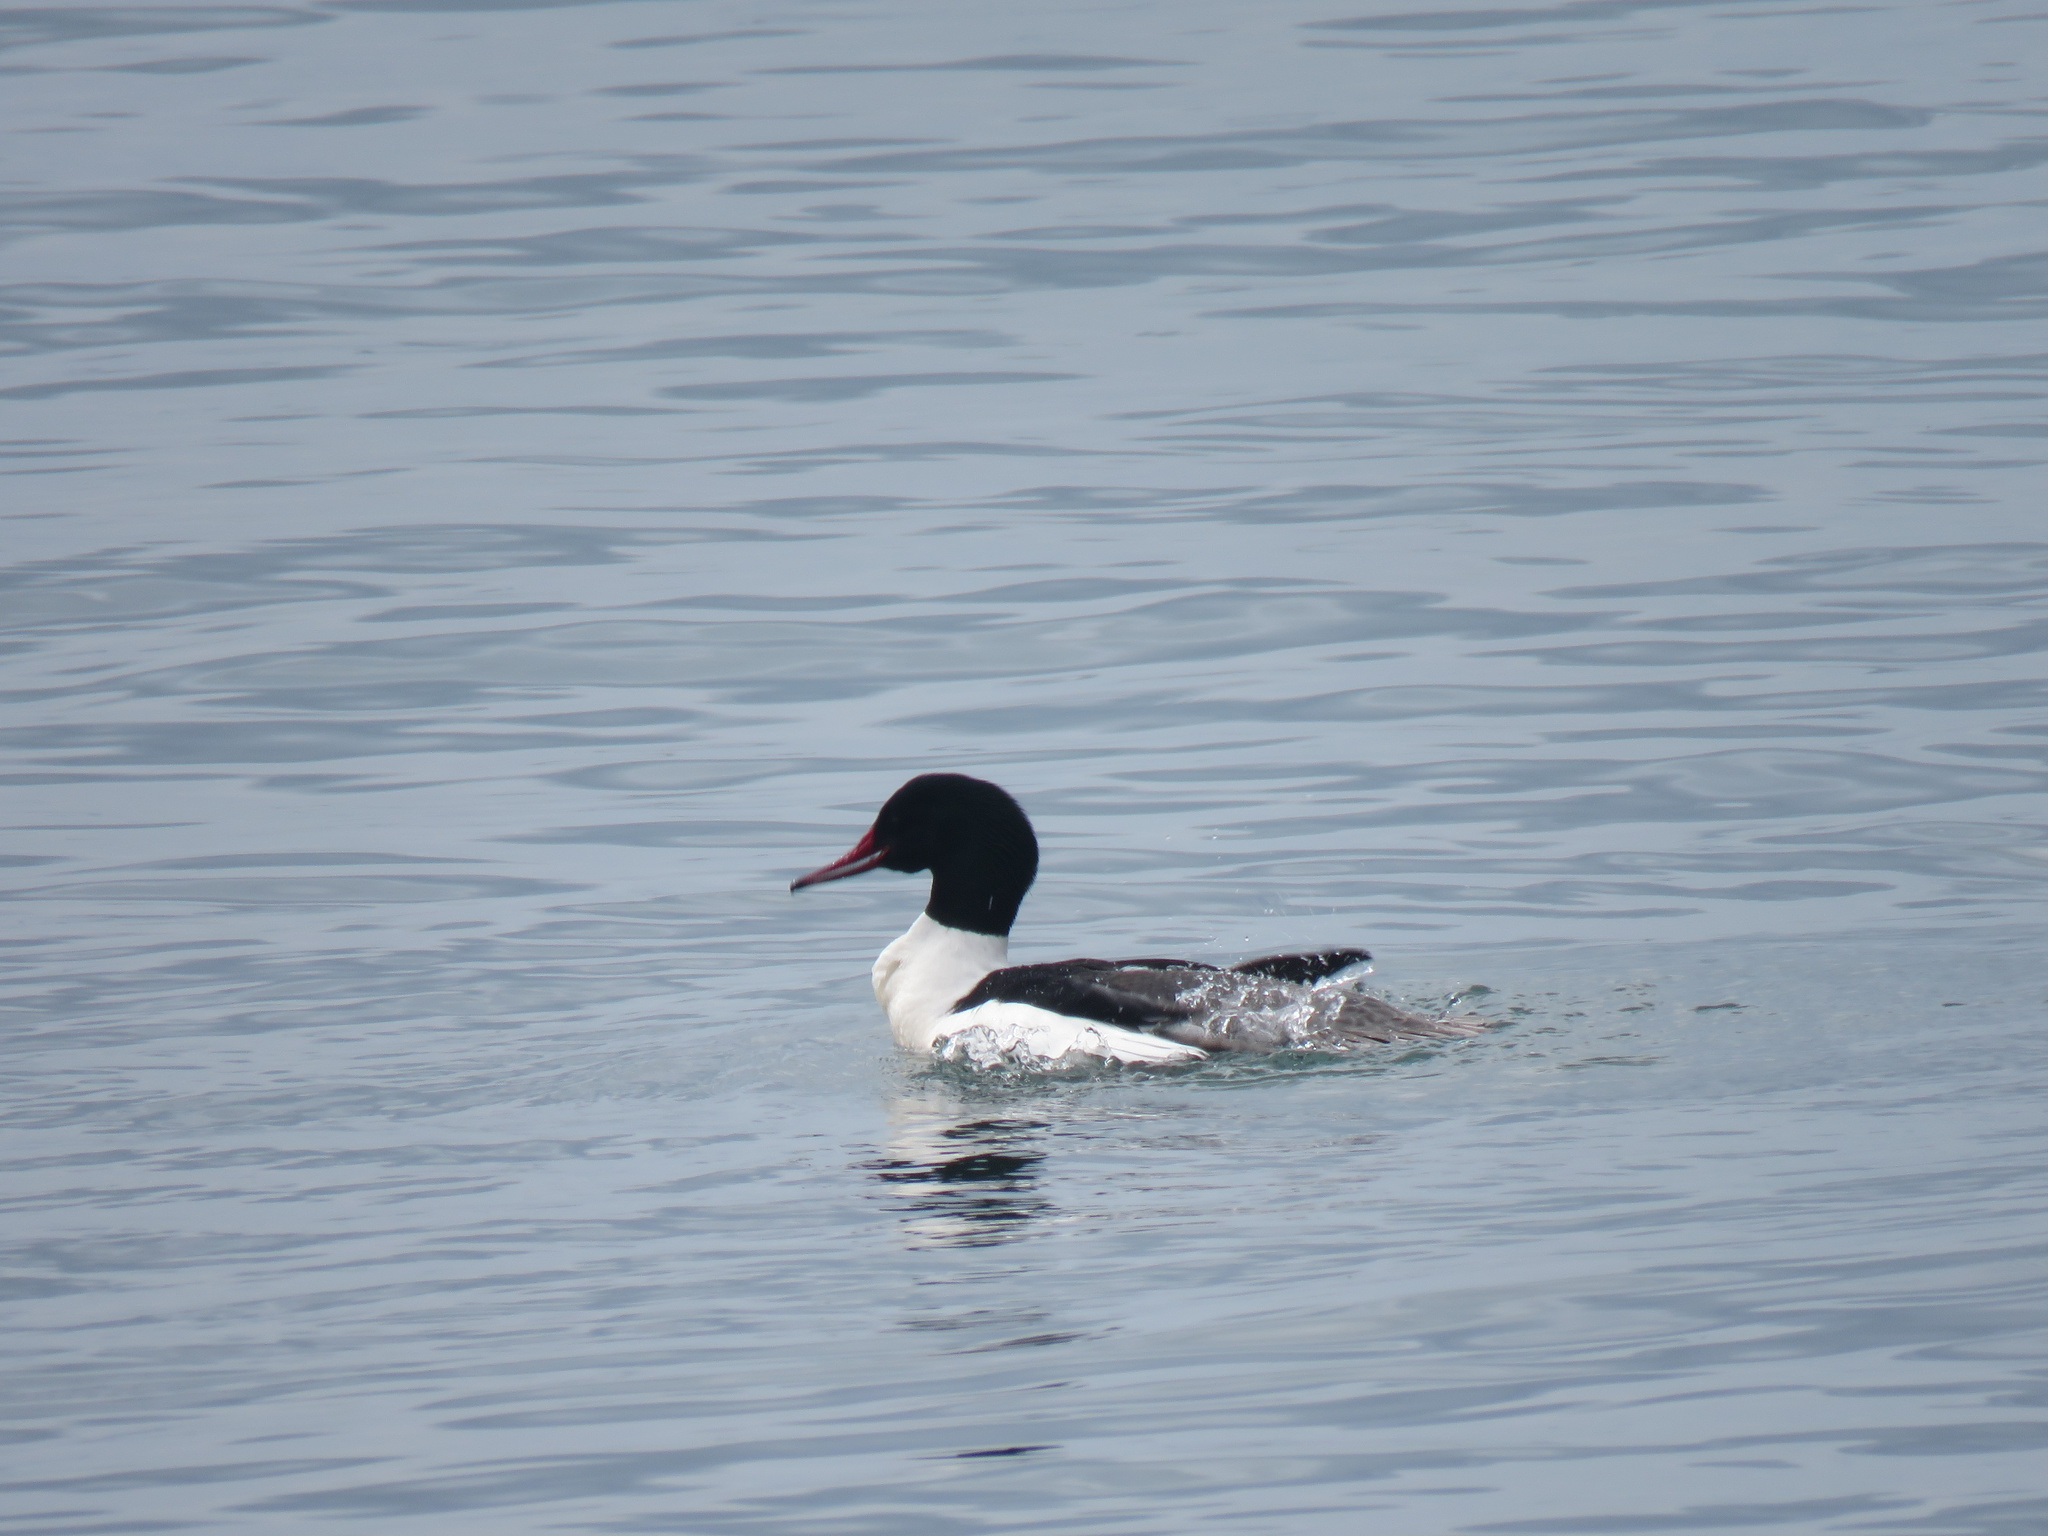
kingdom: Animalia
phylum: Chordata
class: Aves
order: Anseriformes
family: Anatidae
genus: Mergus
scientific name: Mergus merganser
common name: Common merganser
